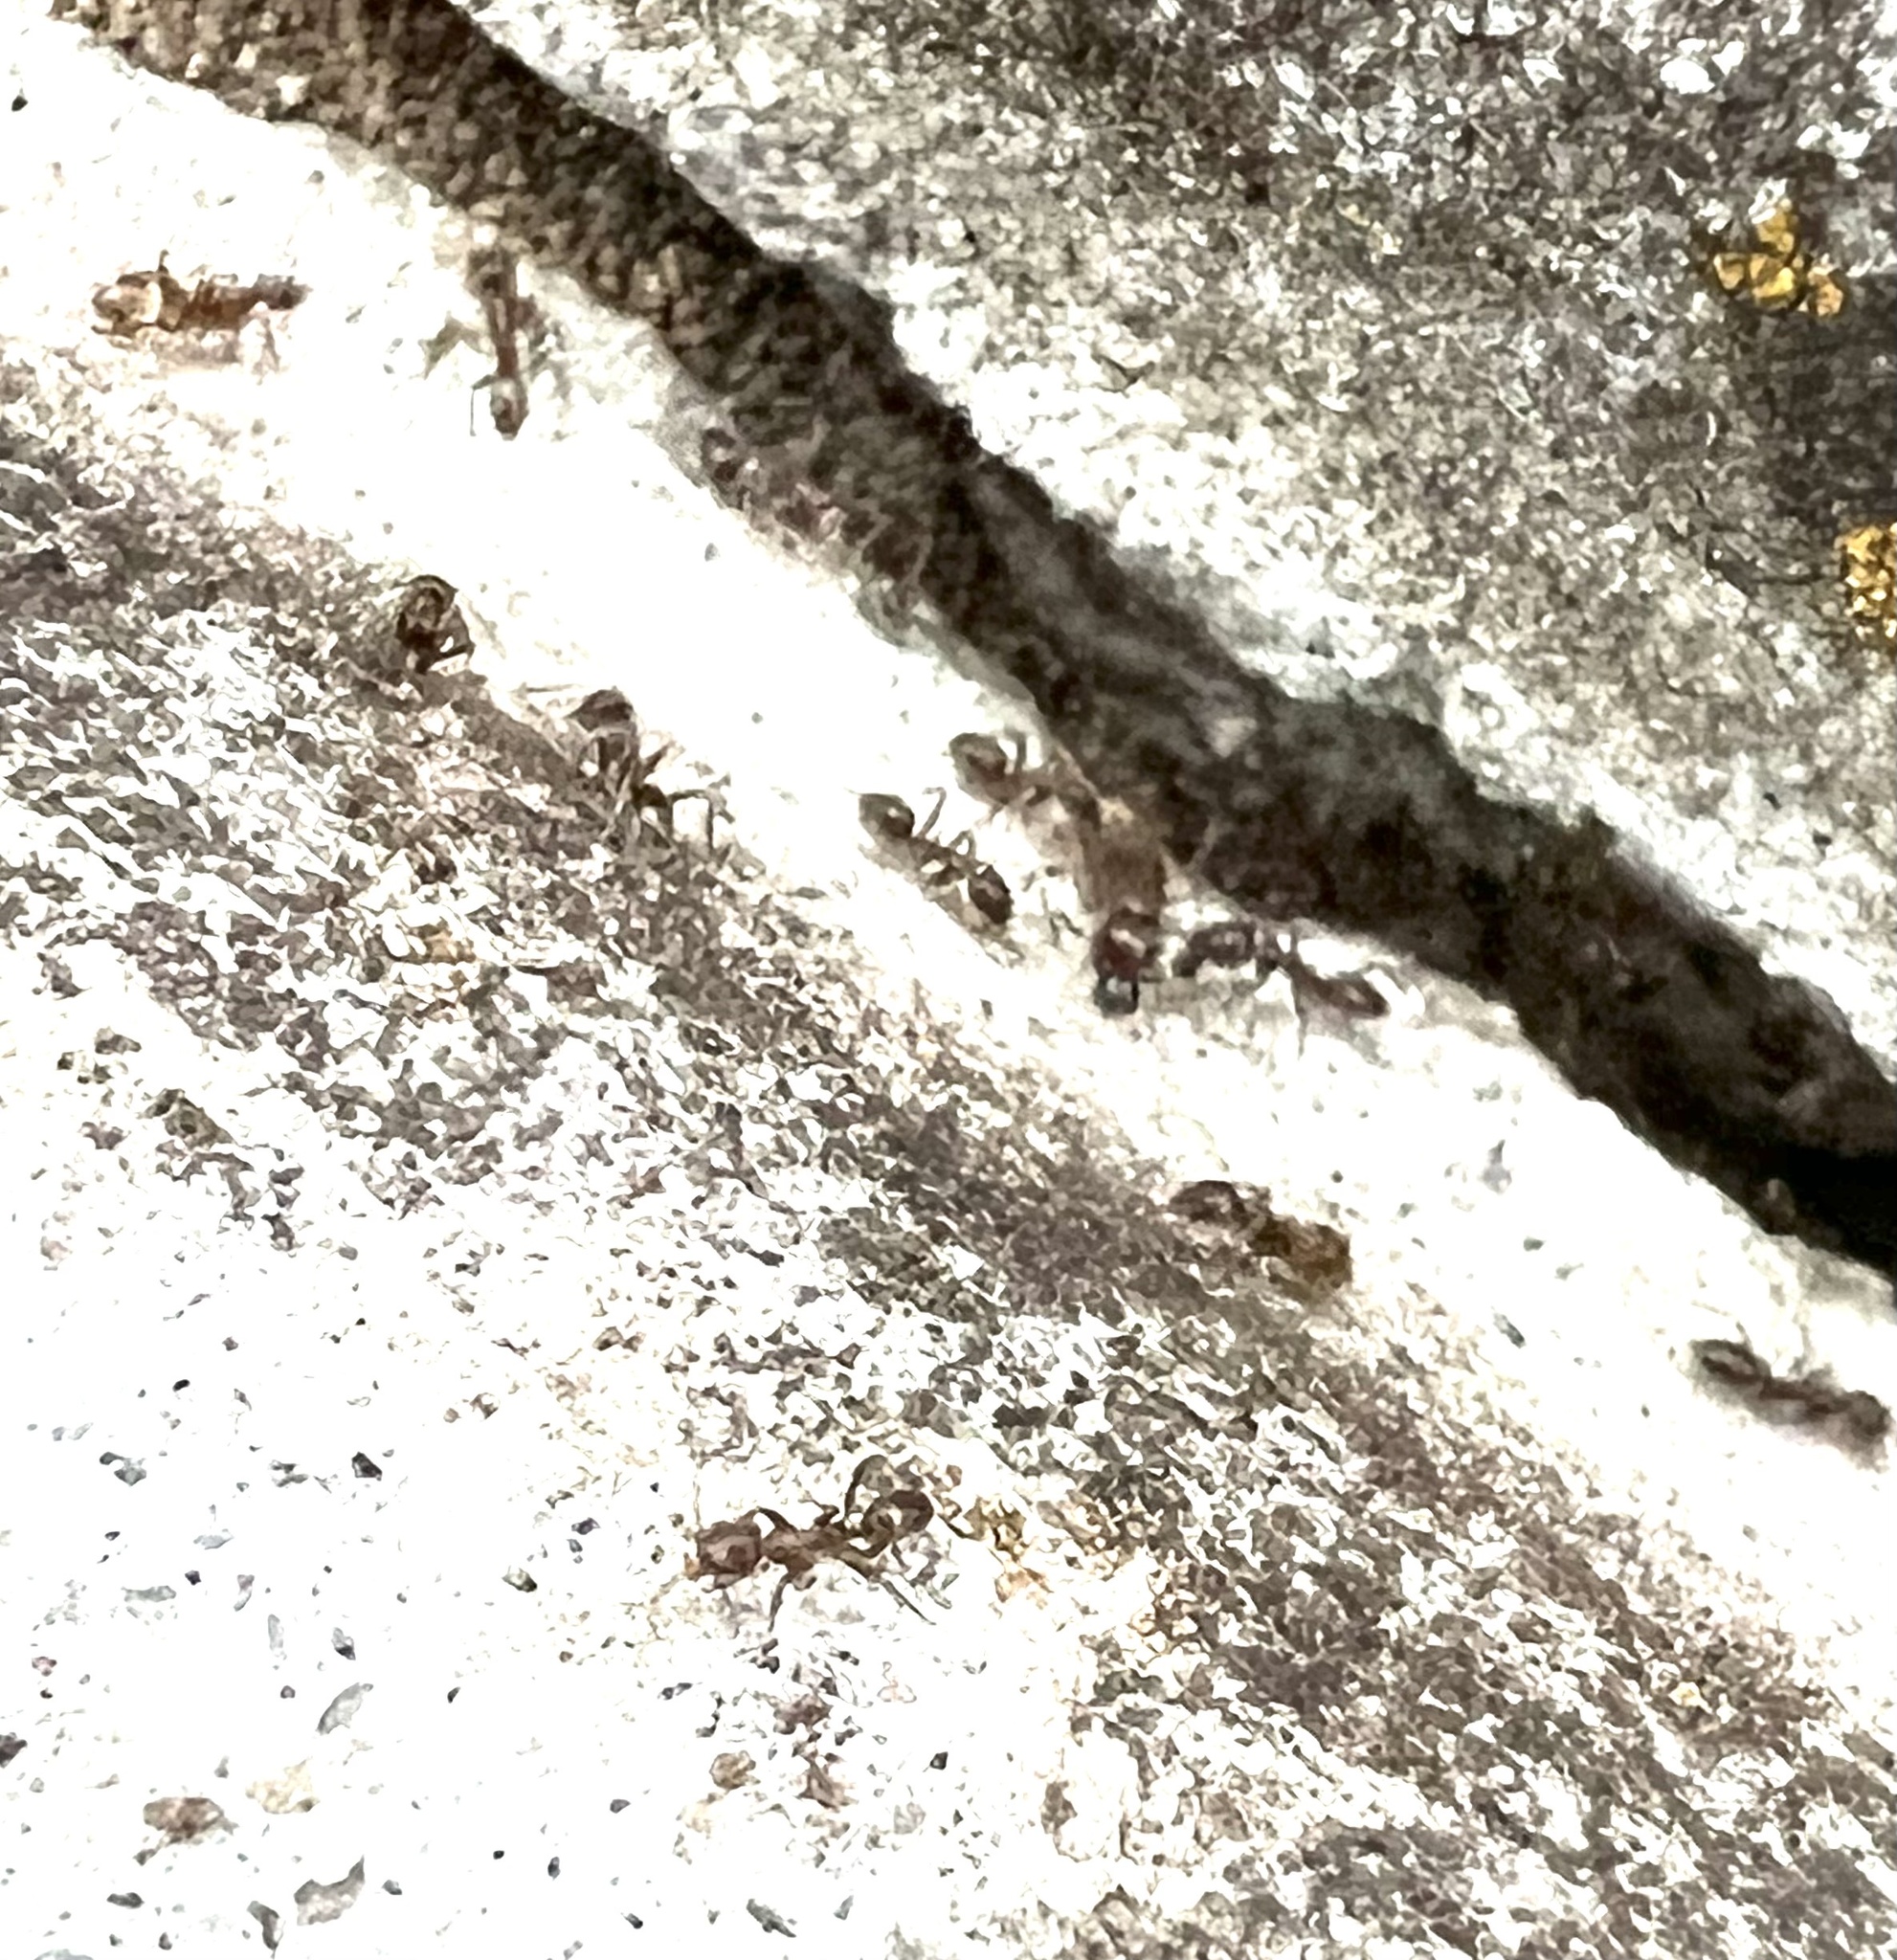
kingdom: Animalia
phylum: Arthropoda
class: Insecta
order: Hymenoptera
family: Formicidae
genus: Linepithema
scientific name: Linepithema humile
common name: Argentine ant
